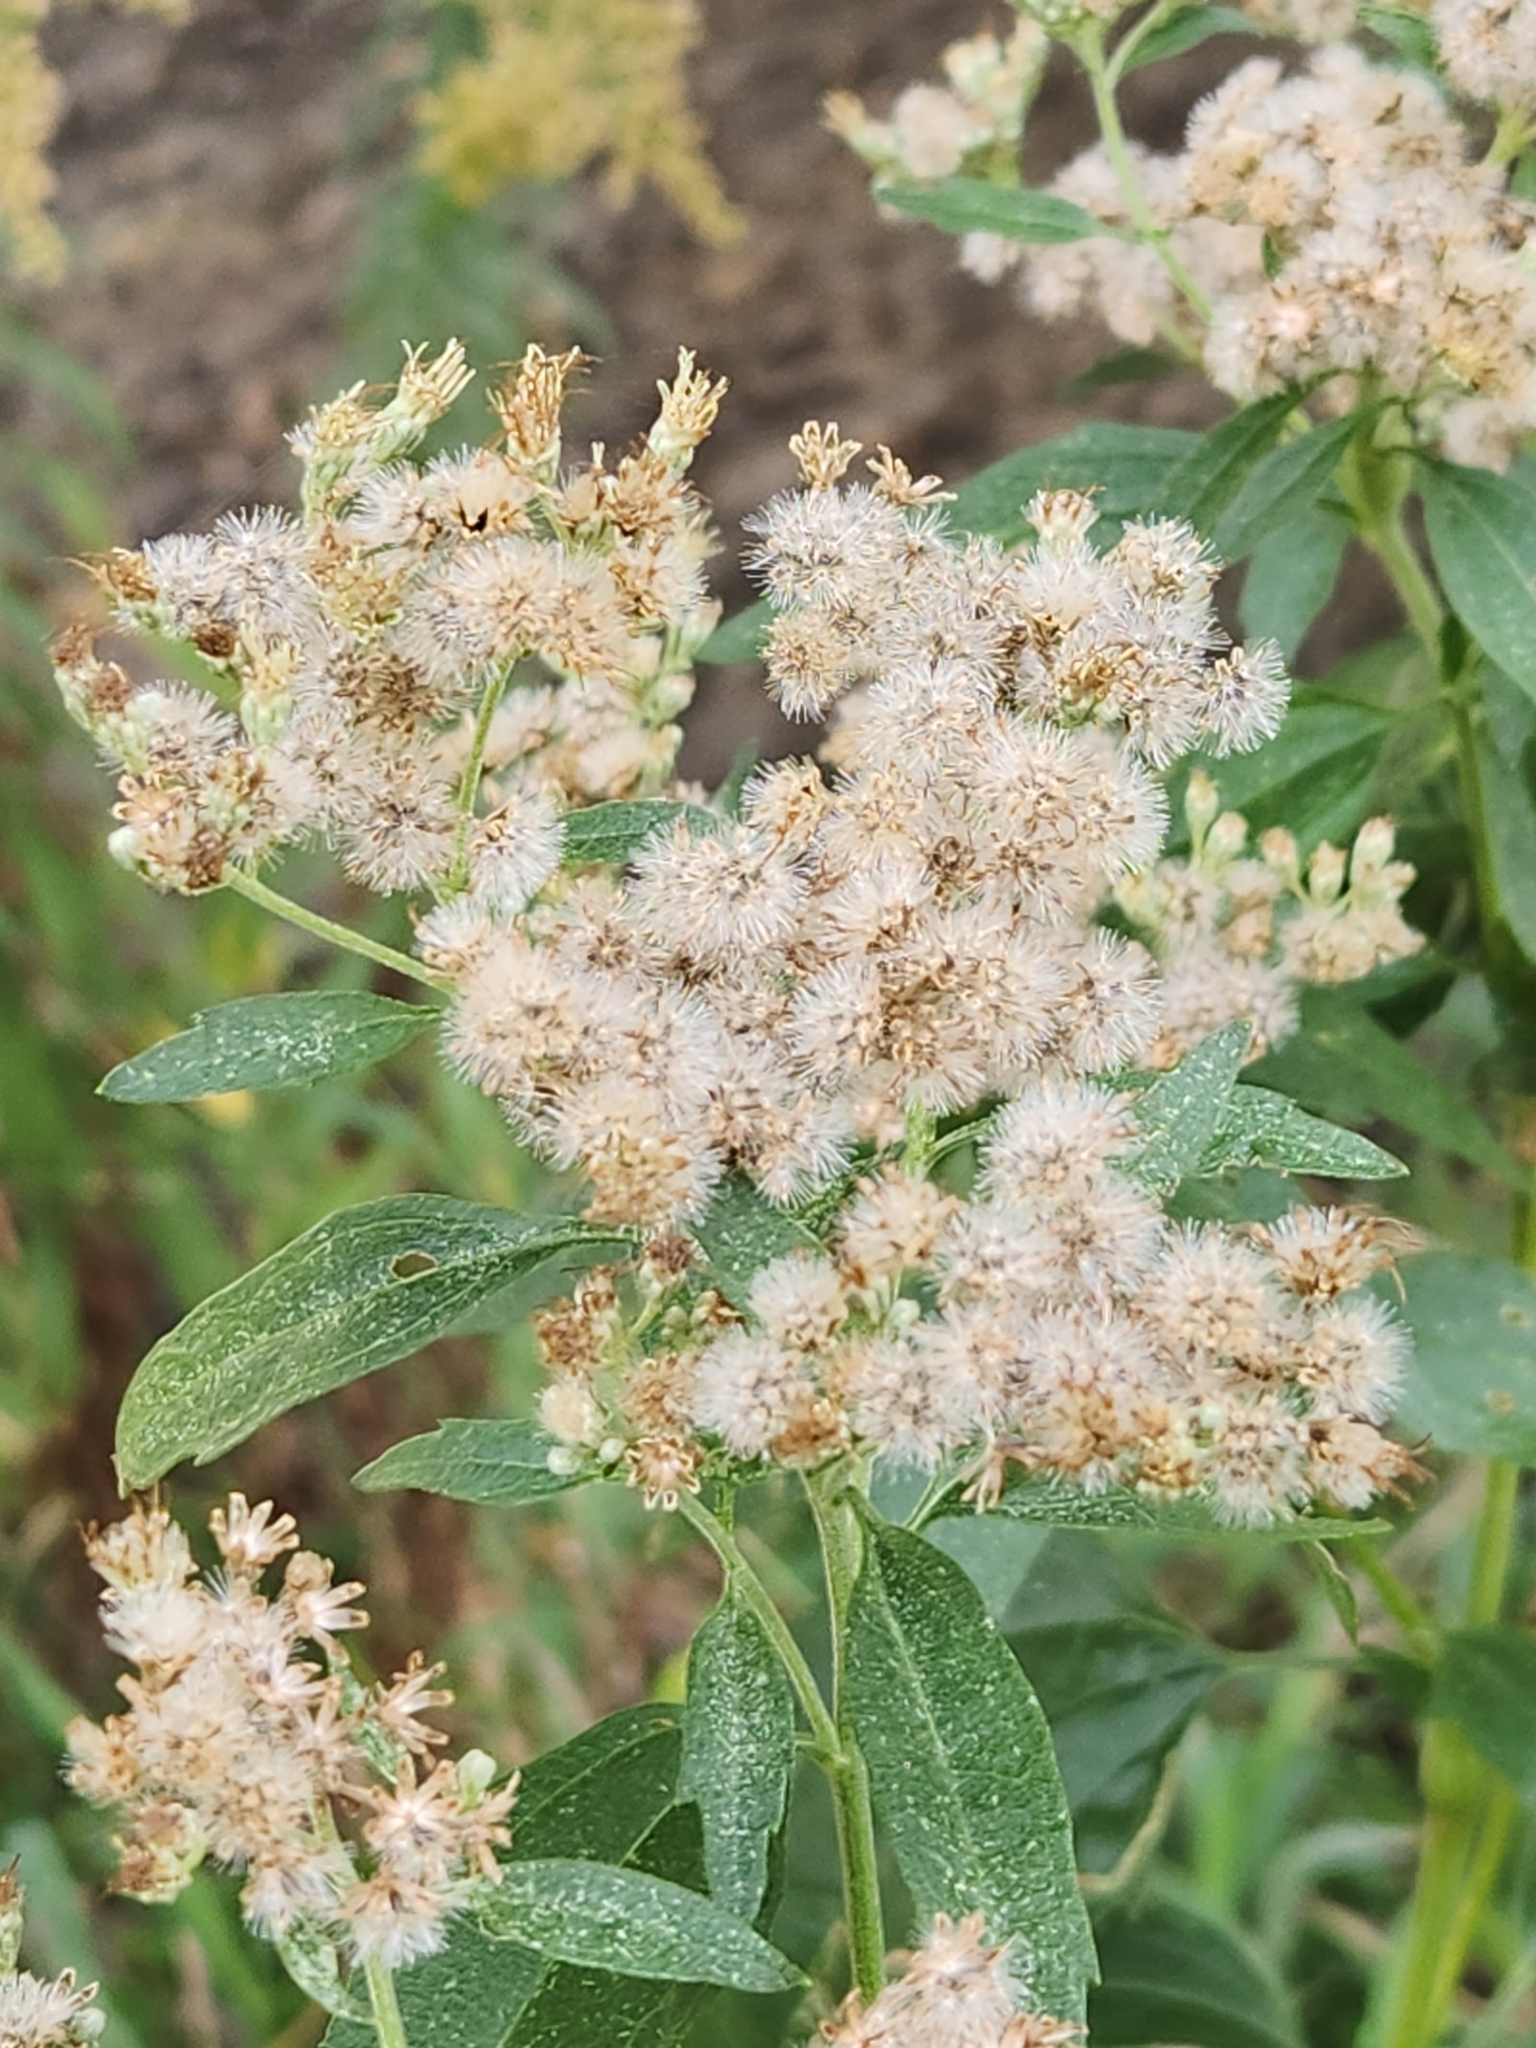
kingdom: Plantae
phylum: Tracheophyta
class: Magnoliopsida
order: Asterales
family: Asteraceae
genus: Eupatorium
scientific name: Eupatorium serotinum
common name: Late boneset
